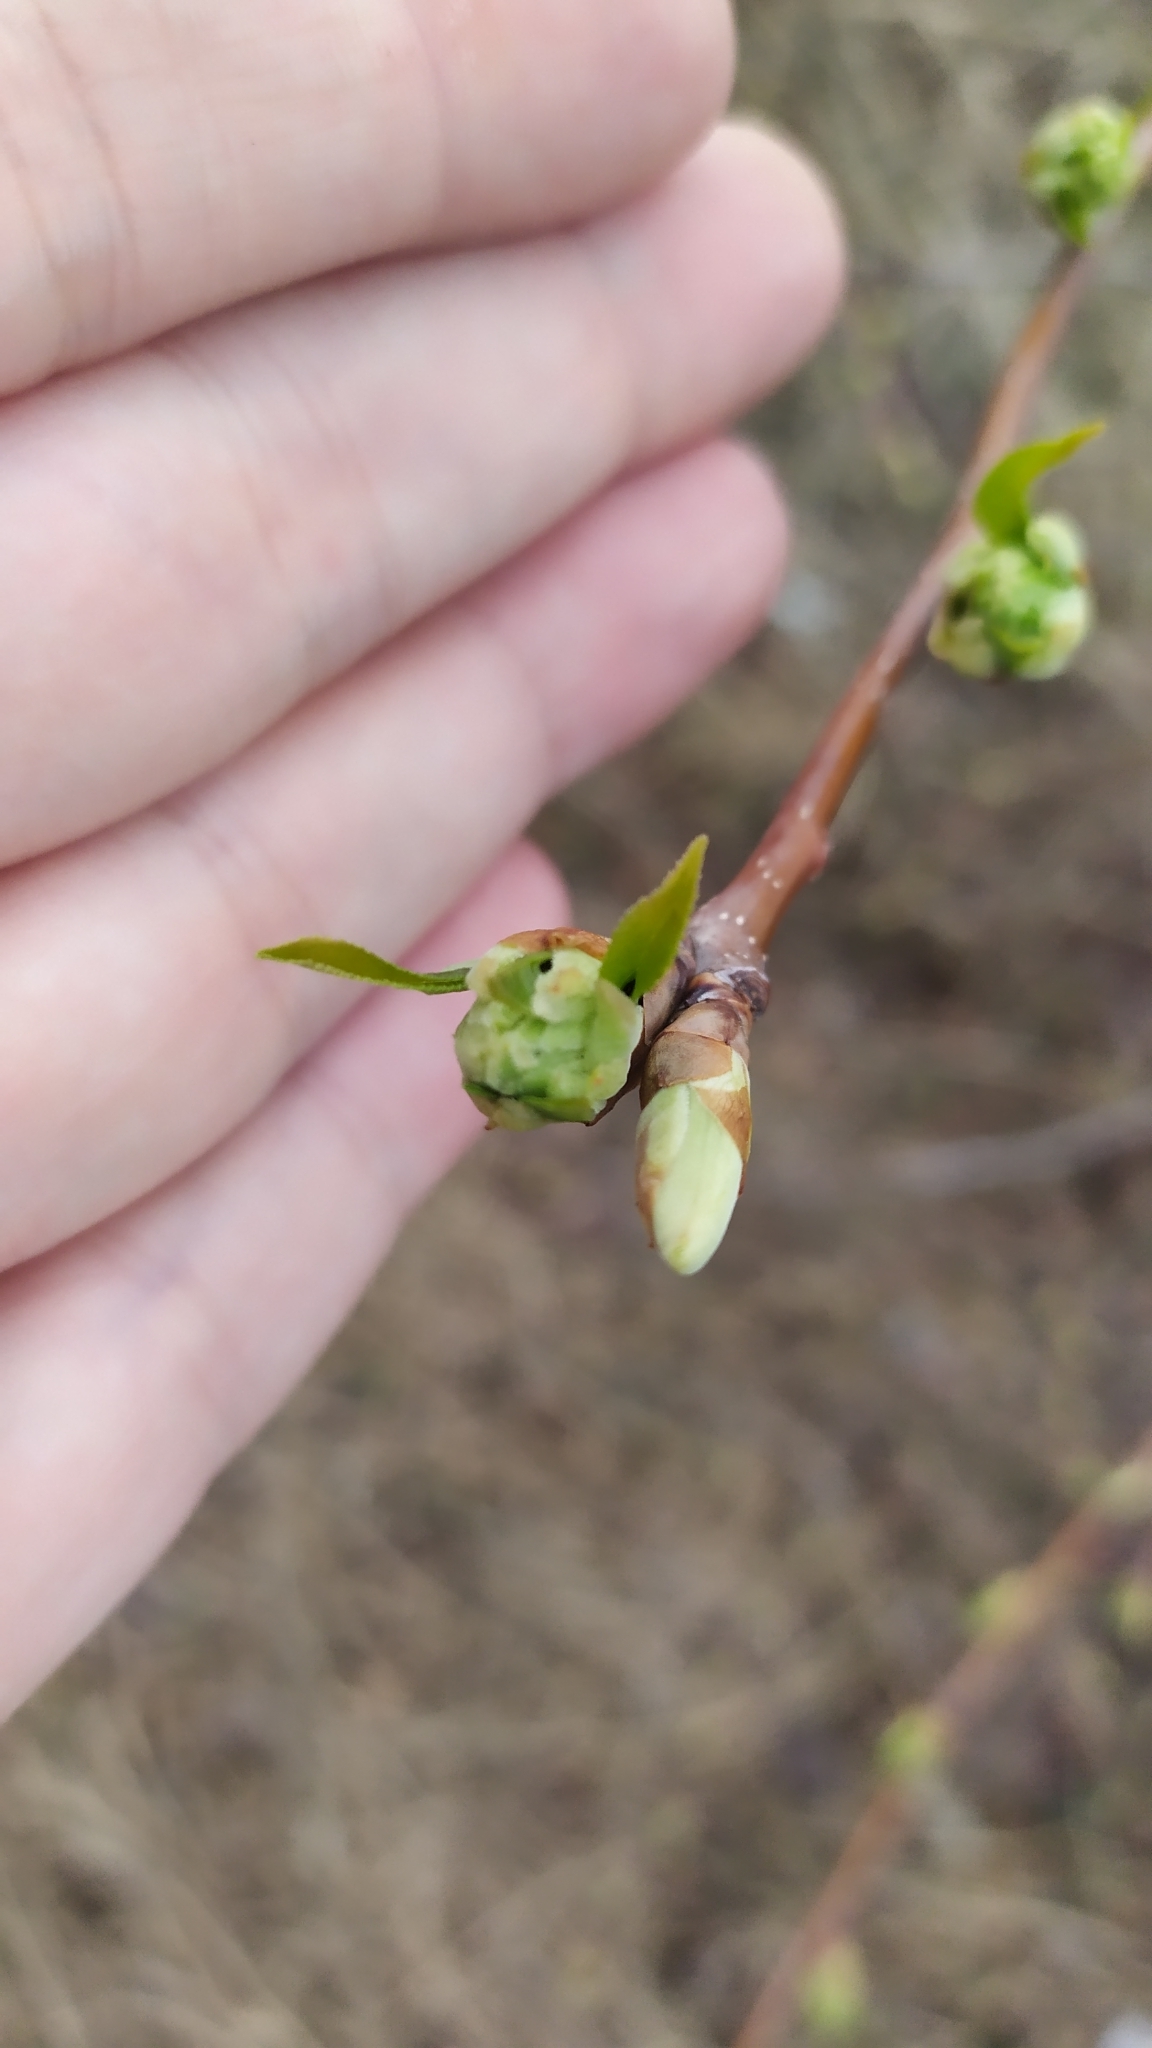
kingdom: Plantae
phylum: Tracheophyta
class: Magnoliopsida
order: Rosales
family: Rosaceae
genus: Prunus
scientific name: Prunus padus
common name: Bird cherry
